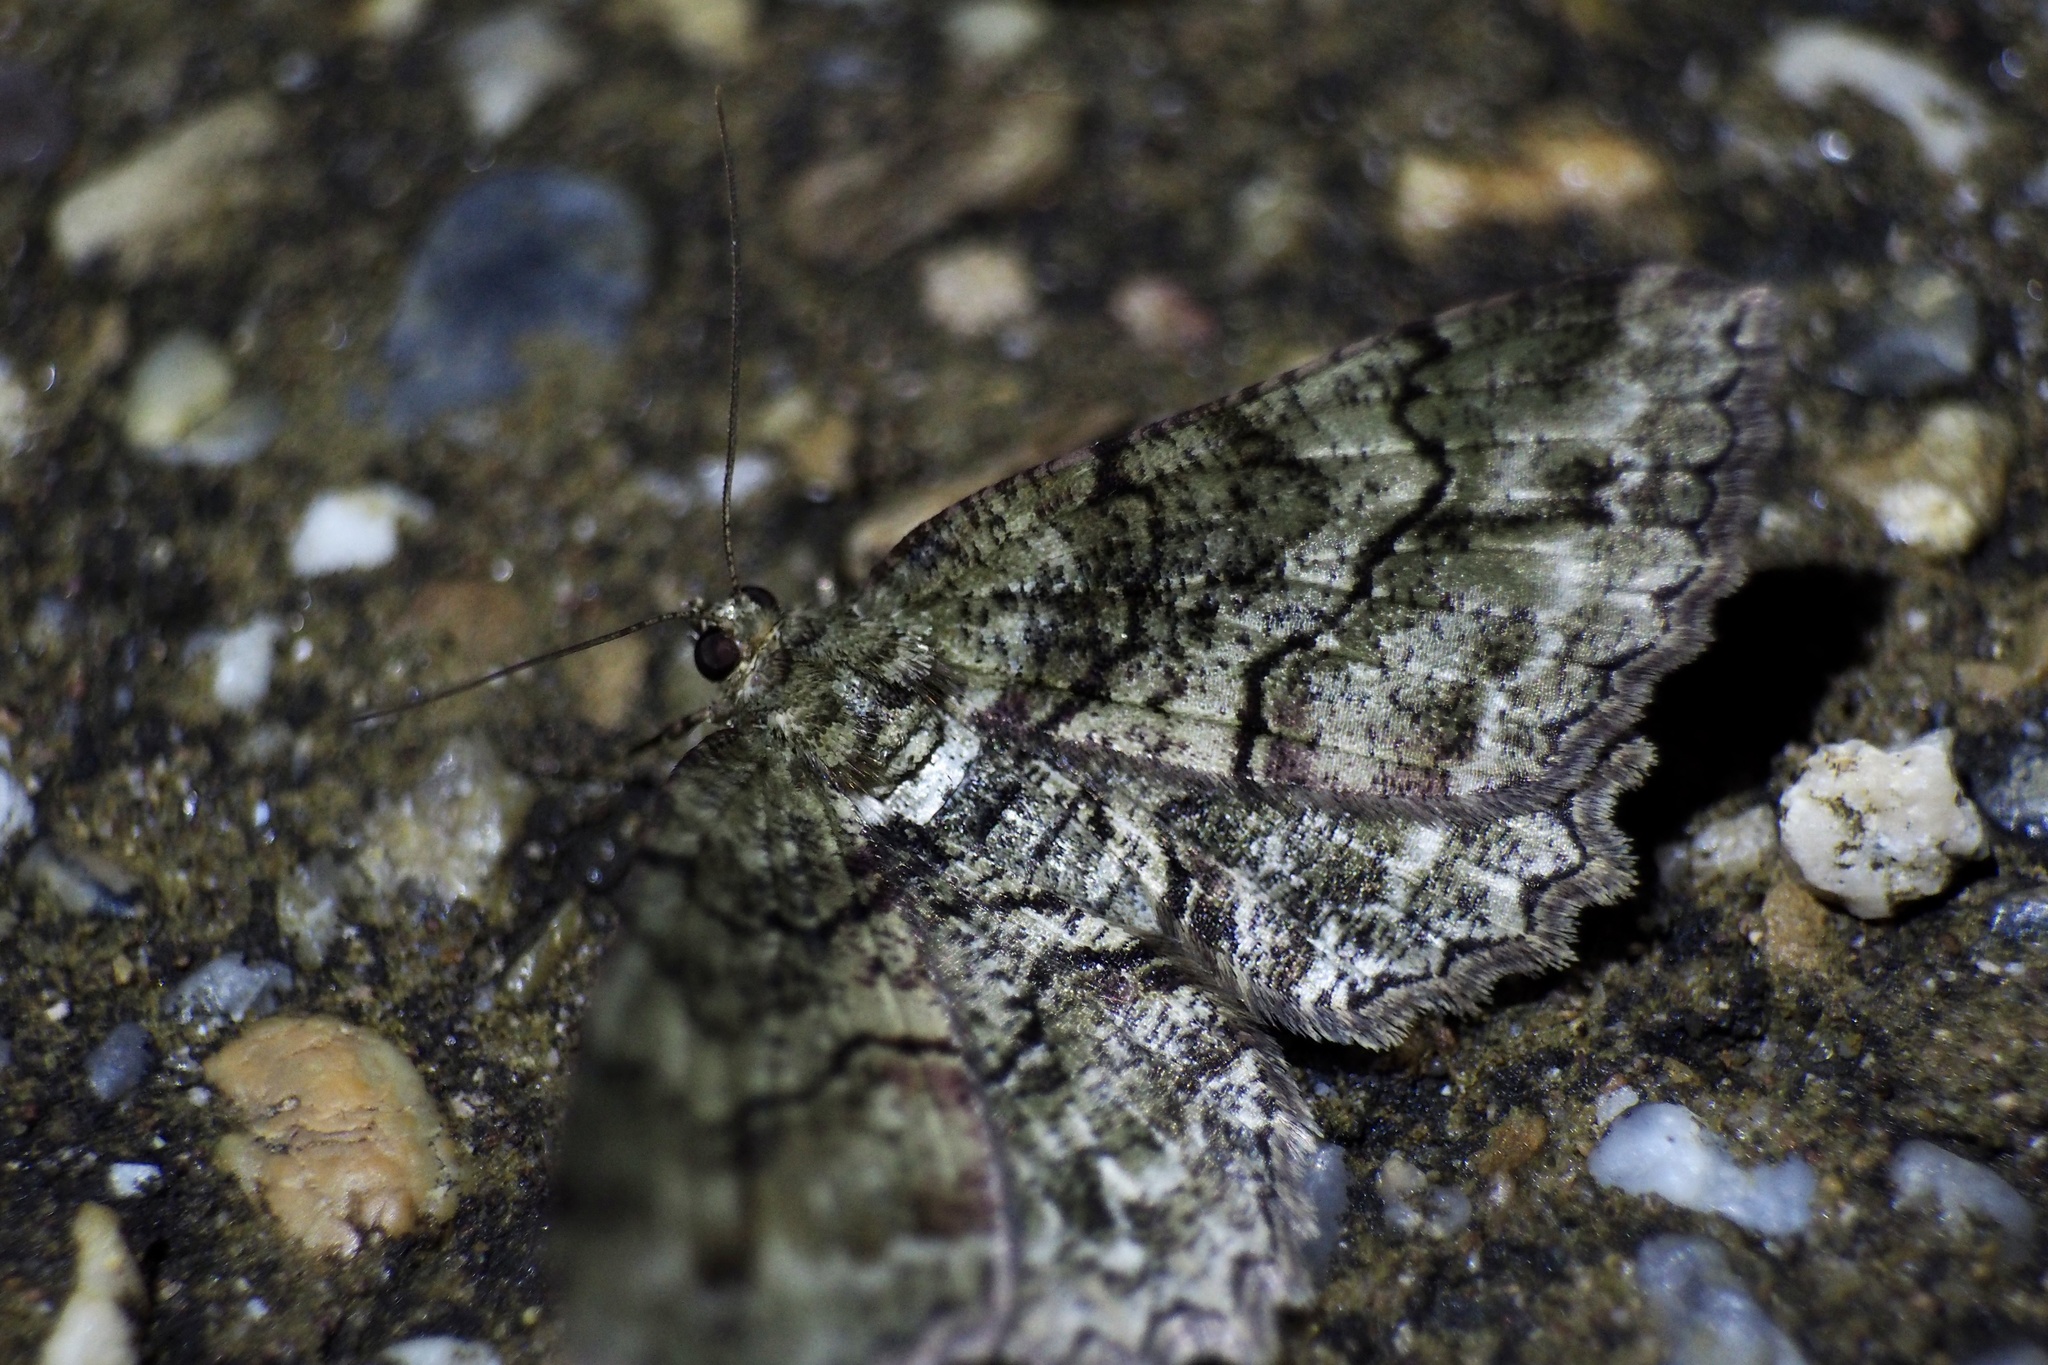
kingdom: Animalia
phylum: Arthropoda
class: Insecta
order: Lepidoptera
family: Geometridae
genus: Paradarisa
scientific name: Paradarisa chloauges
